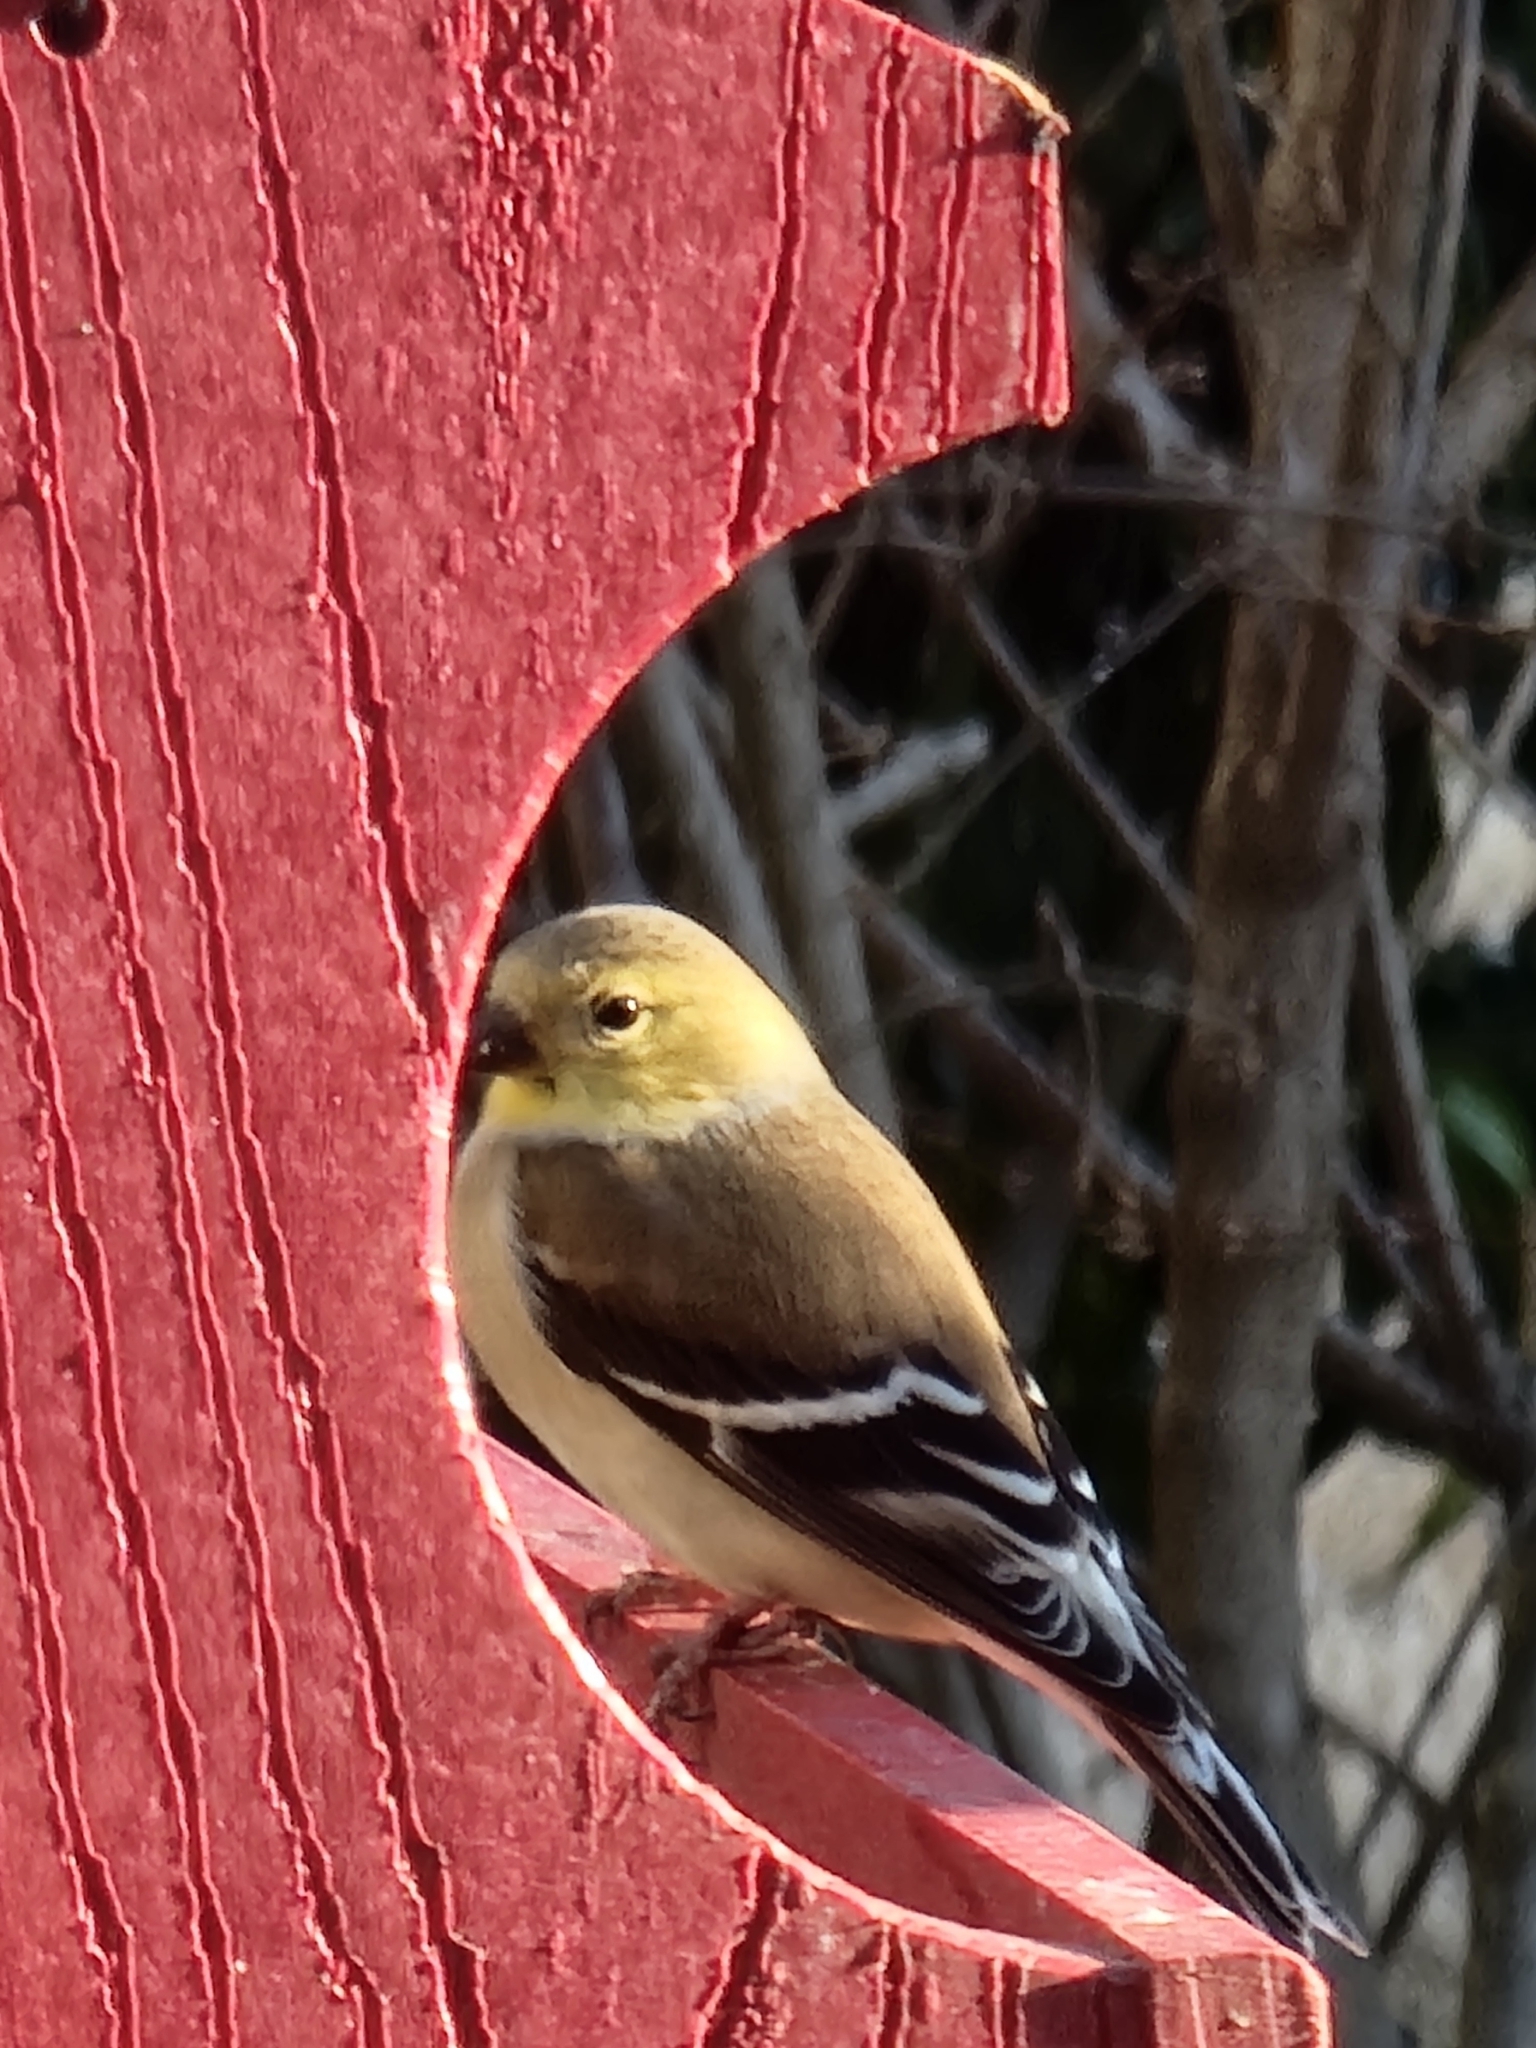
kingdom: Animalia
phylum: Chordata
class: Aves
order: Passeriformes
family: Fringillidae
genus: Spinus
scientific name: Spinus tristis
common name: American goldfinch
